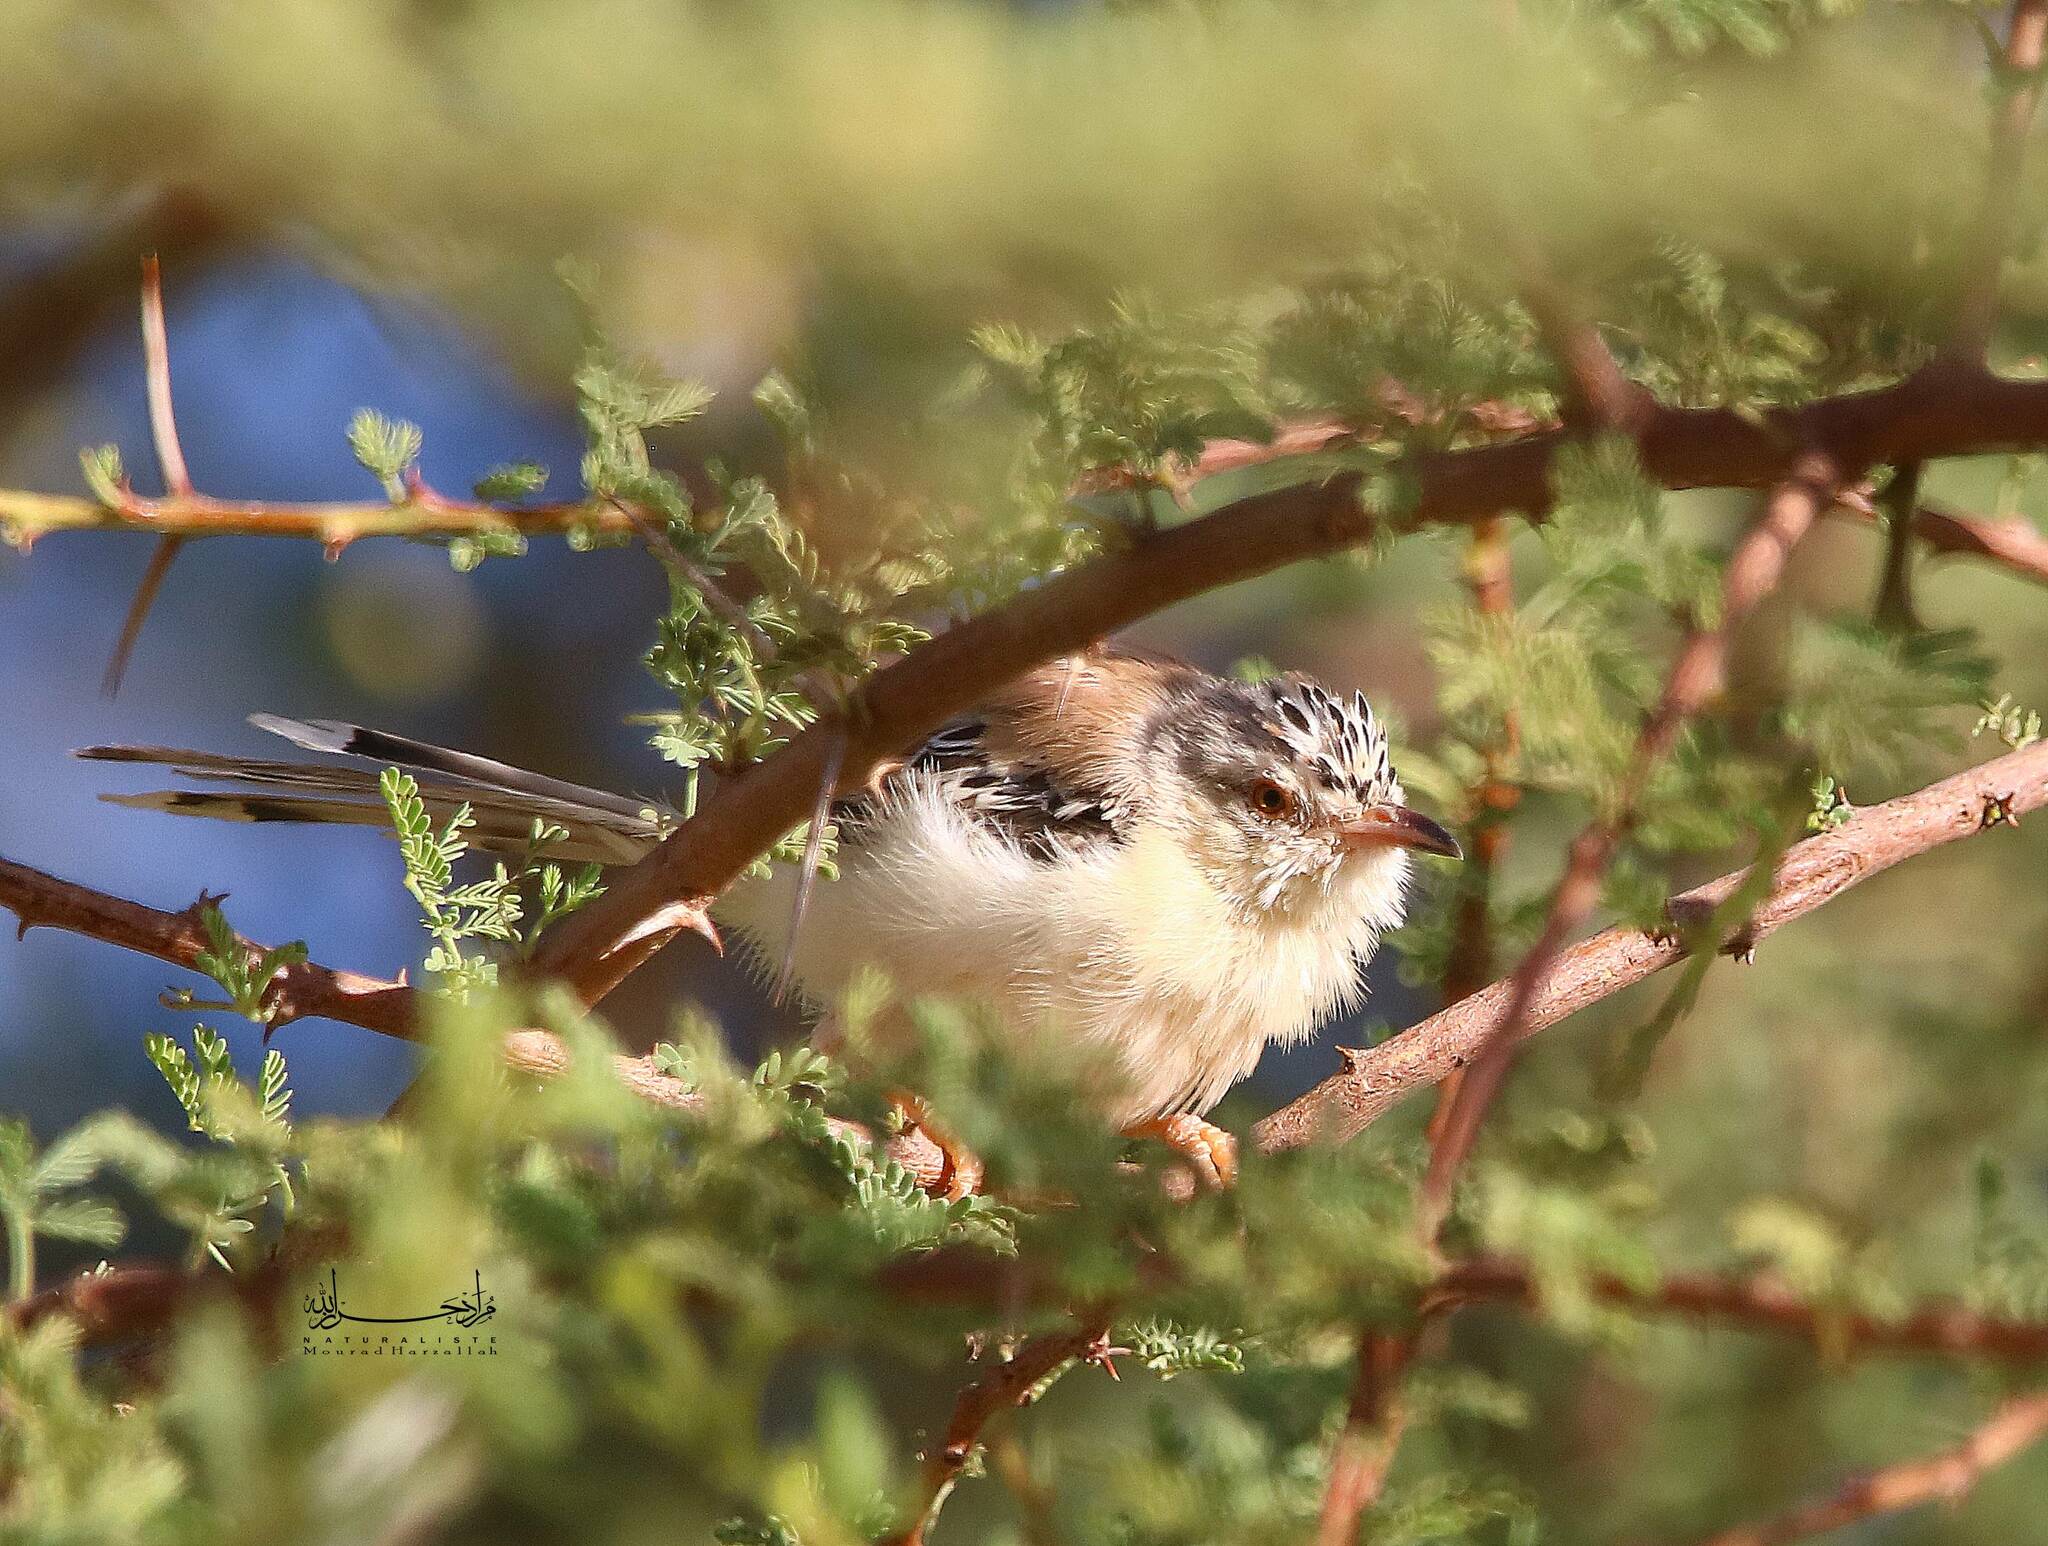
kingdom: Animalia
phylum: Chordata
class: Aves
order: Passeriformes
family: Cisticolidae
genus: Spiloptila
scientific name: Spiloptila clamans
